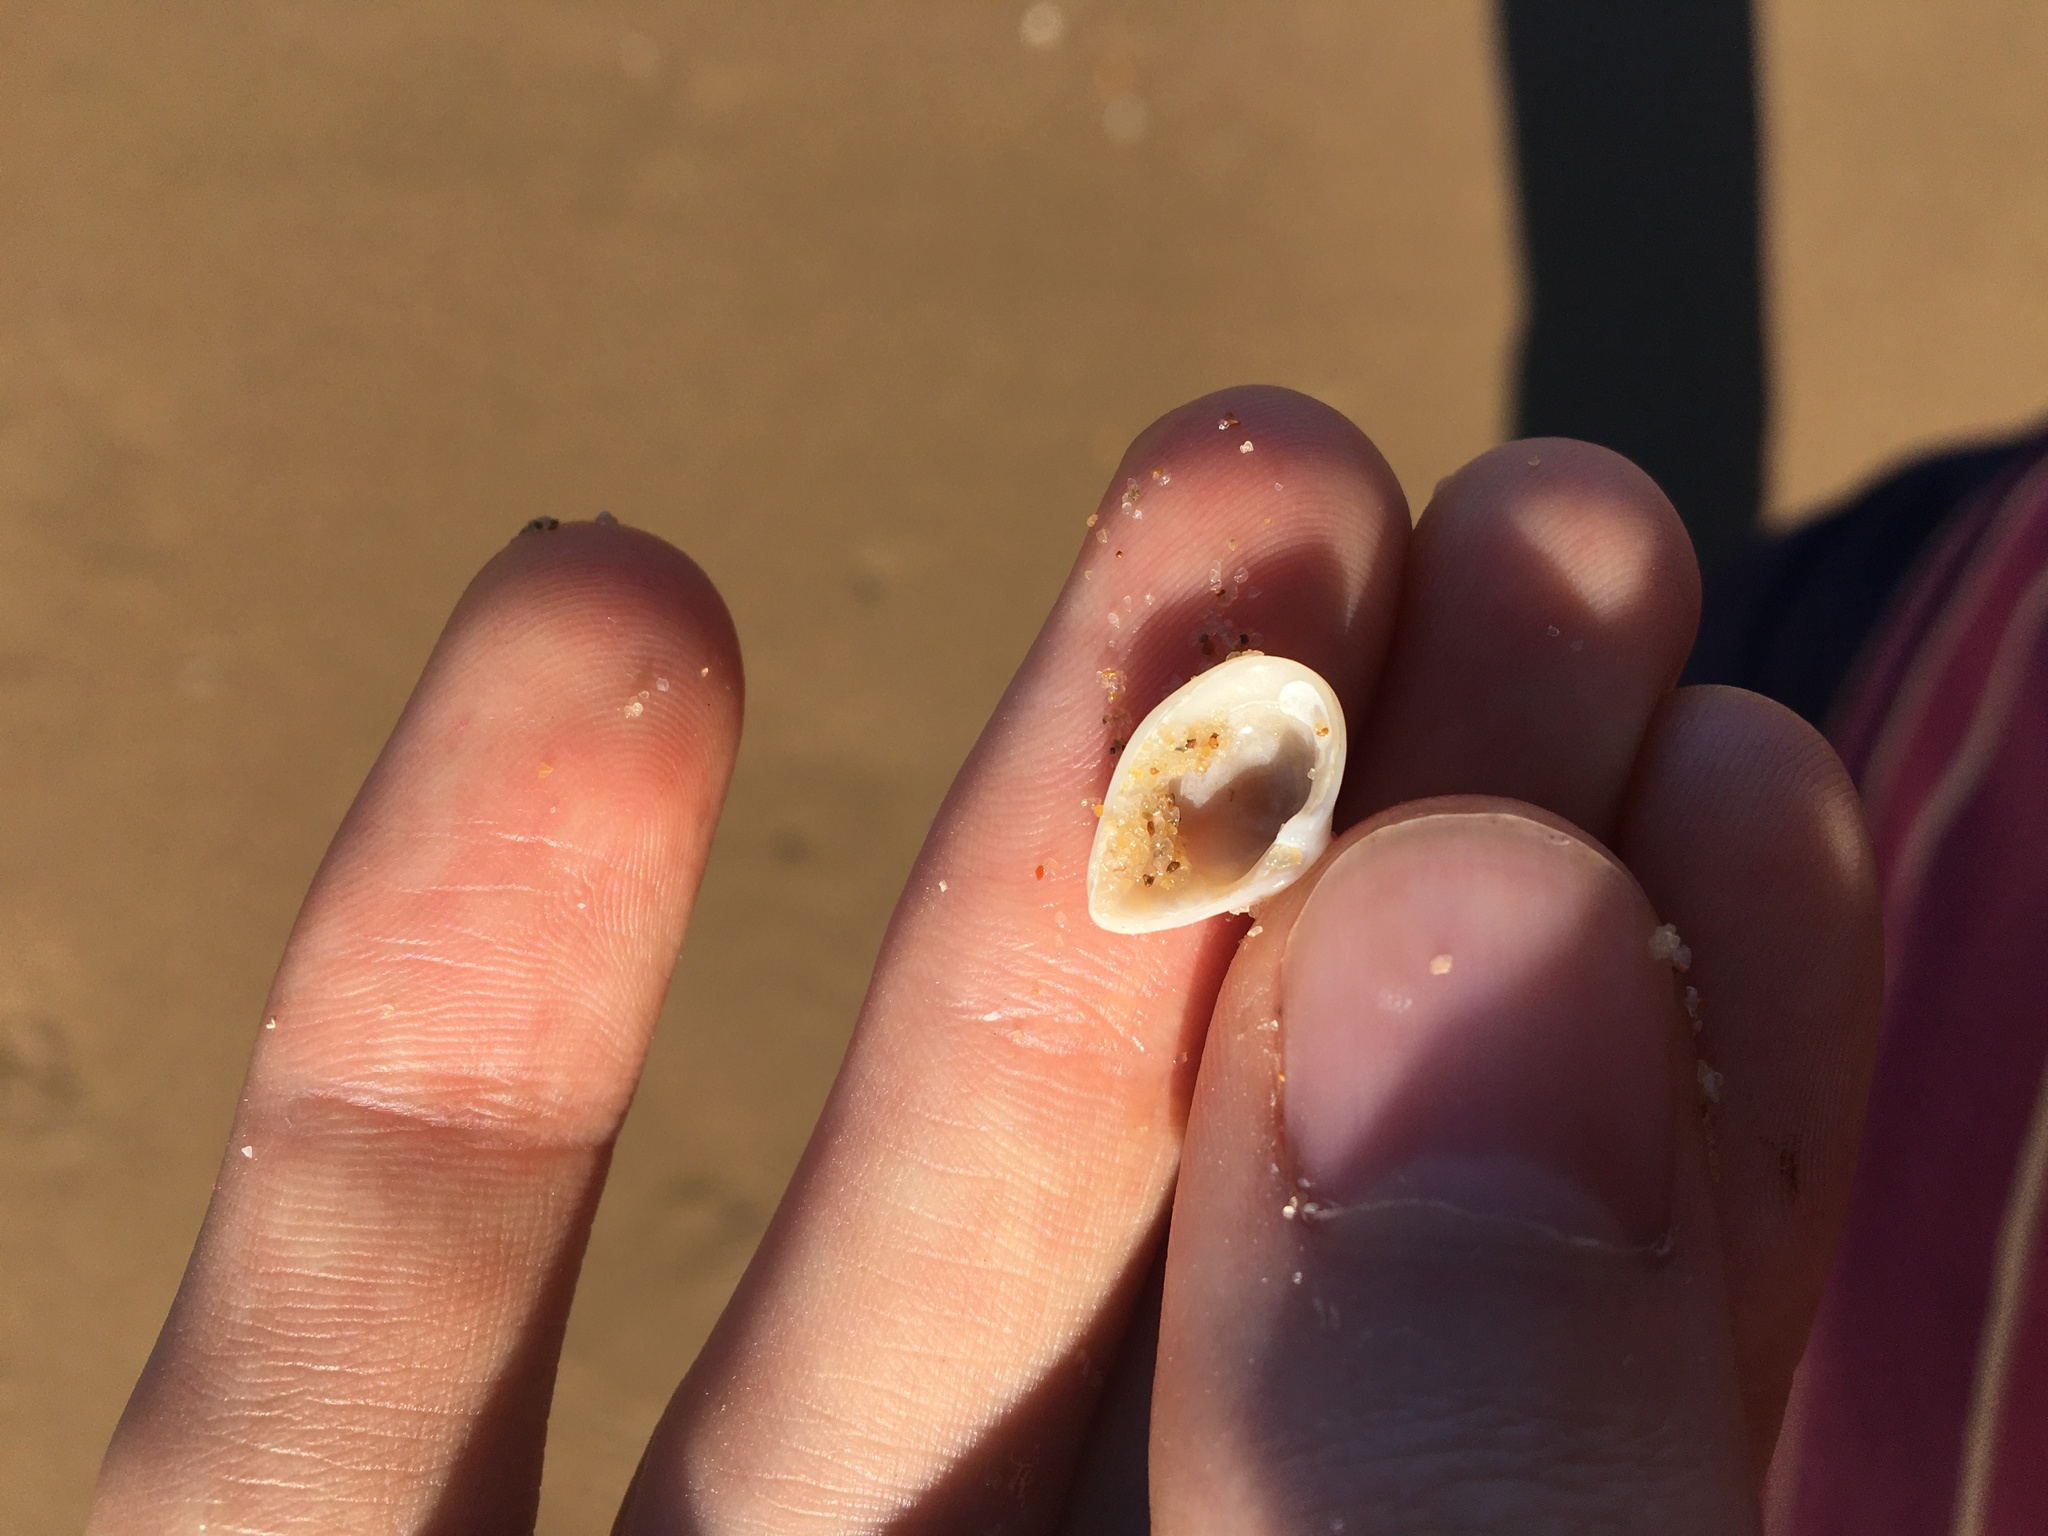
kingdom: Animalia
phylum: Mollusca
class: Bivalvia
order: Myida
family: Corbulidae
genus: Corbula
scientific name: Corbula smithiana
